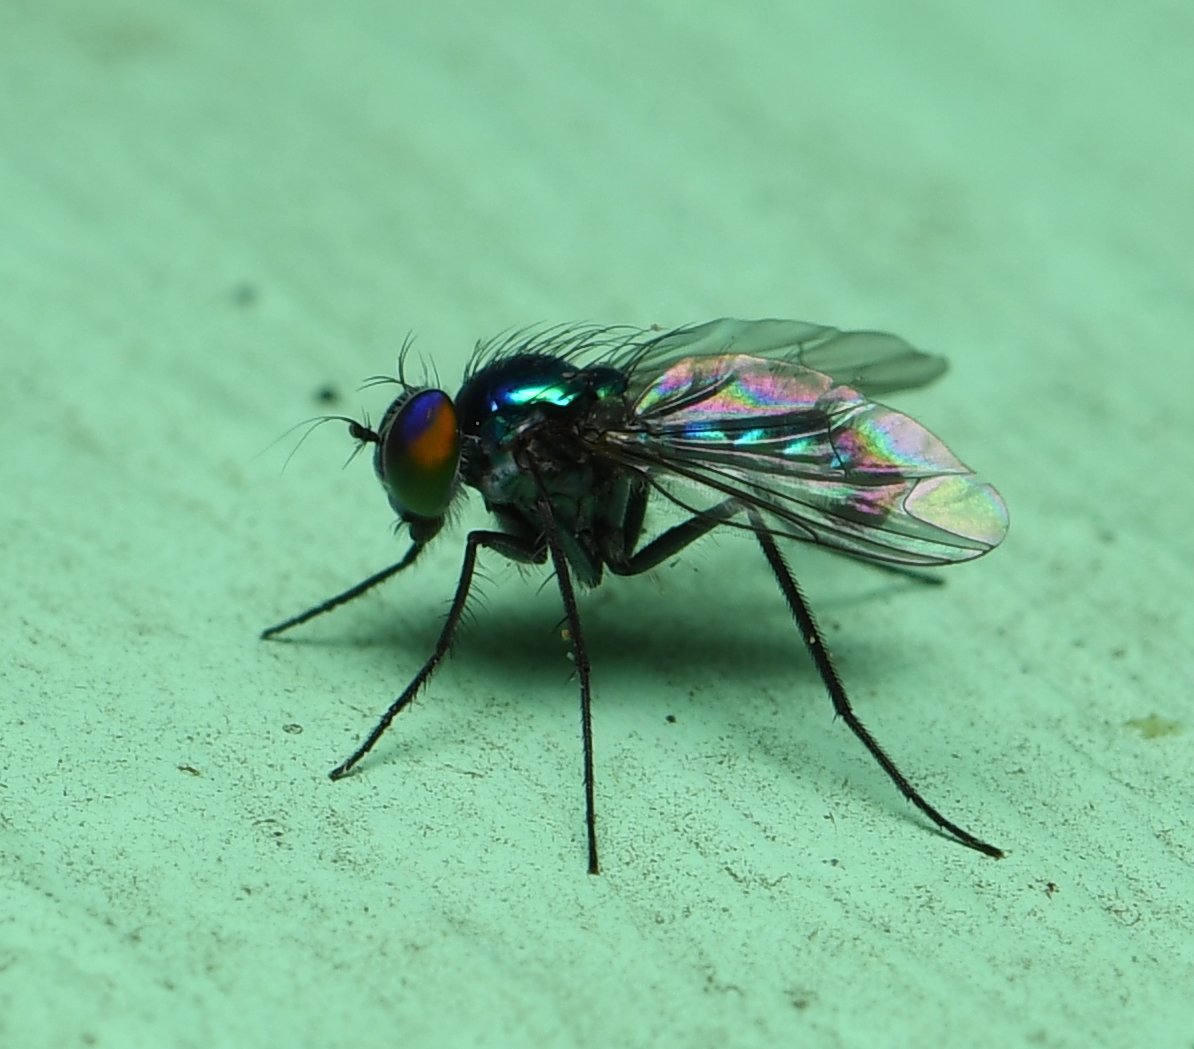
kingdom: Animalia
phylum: Arthropoda
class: Insecta
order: Diptera
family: Dolichopodidae
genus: Condylostylus
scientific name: Condylostylus mundus
